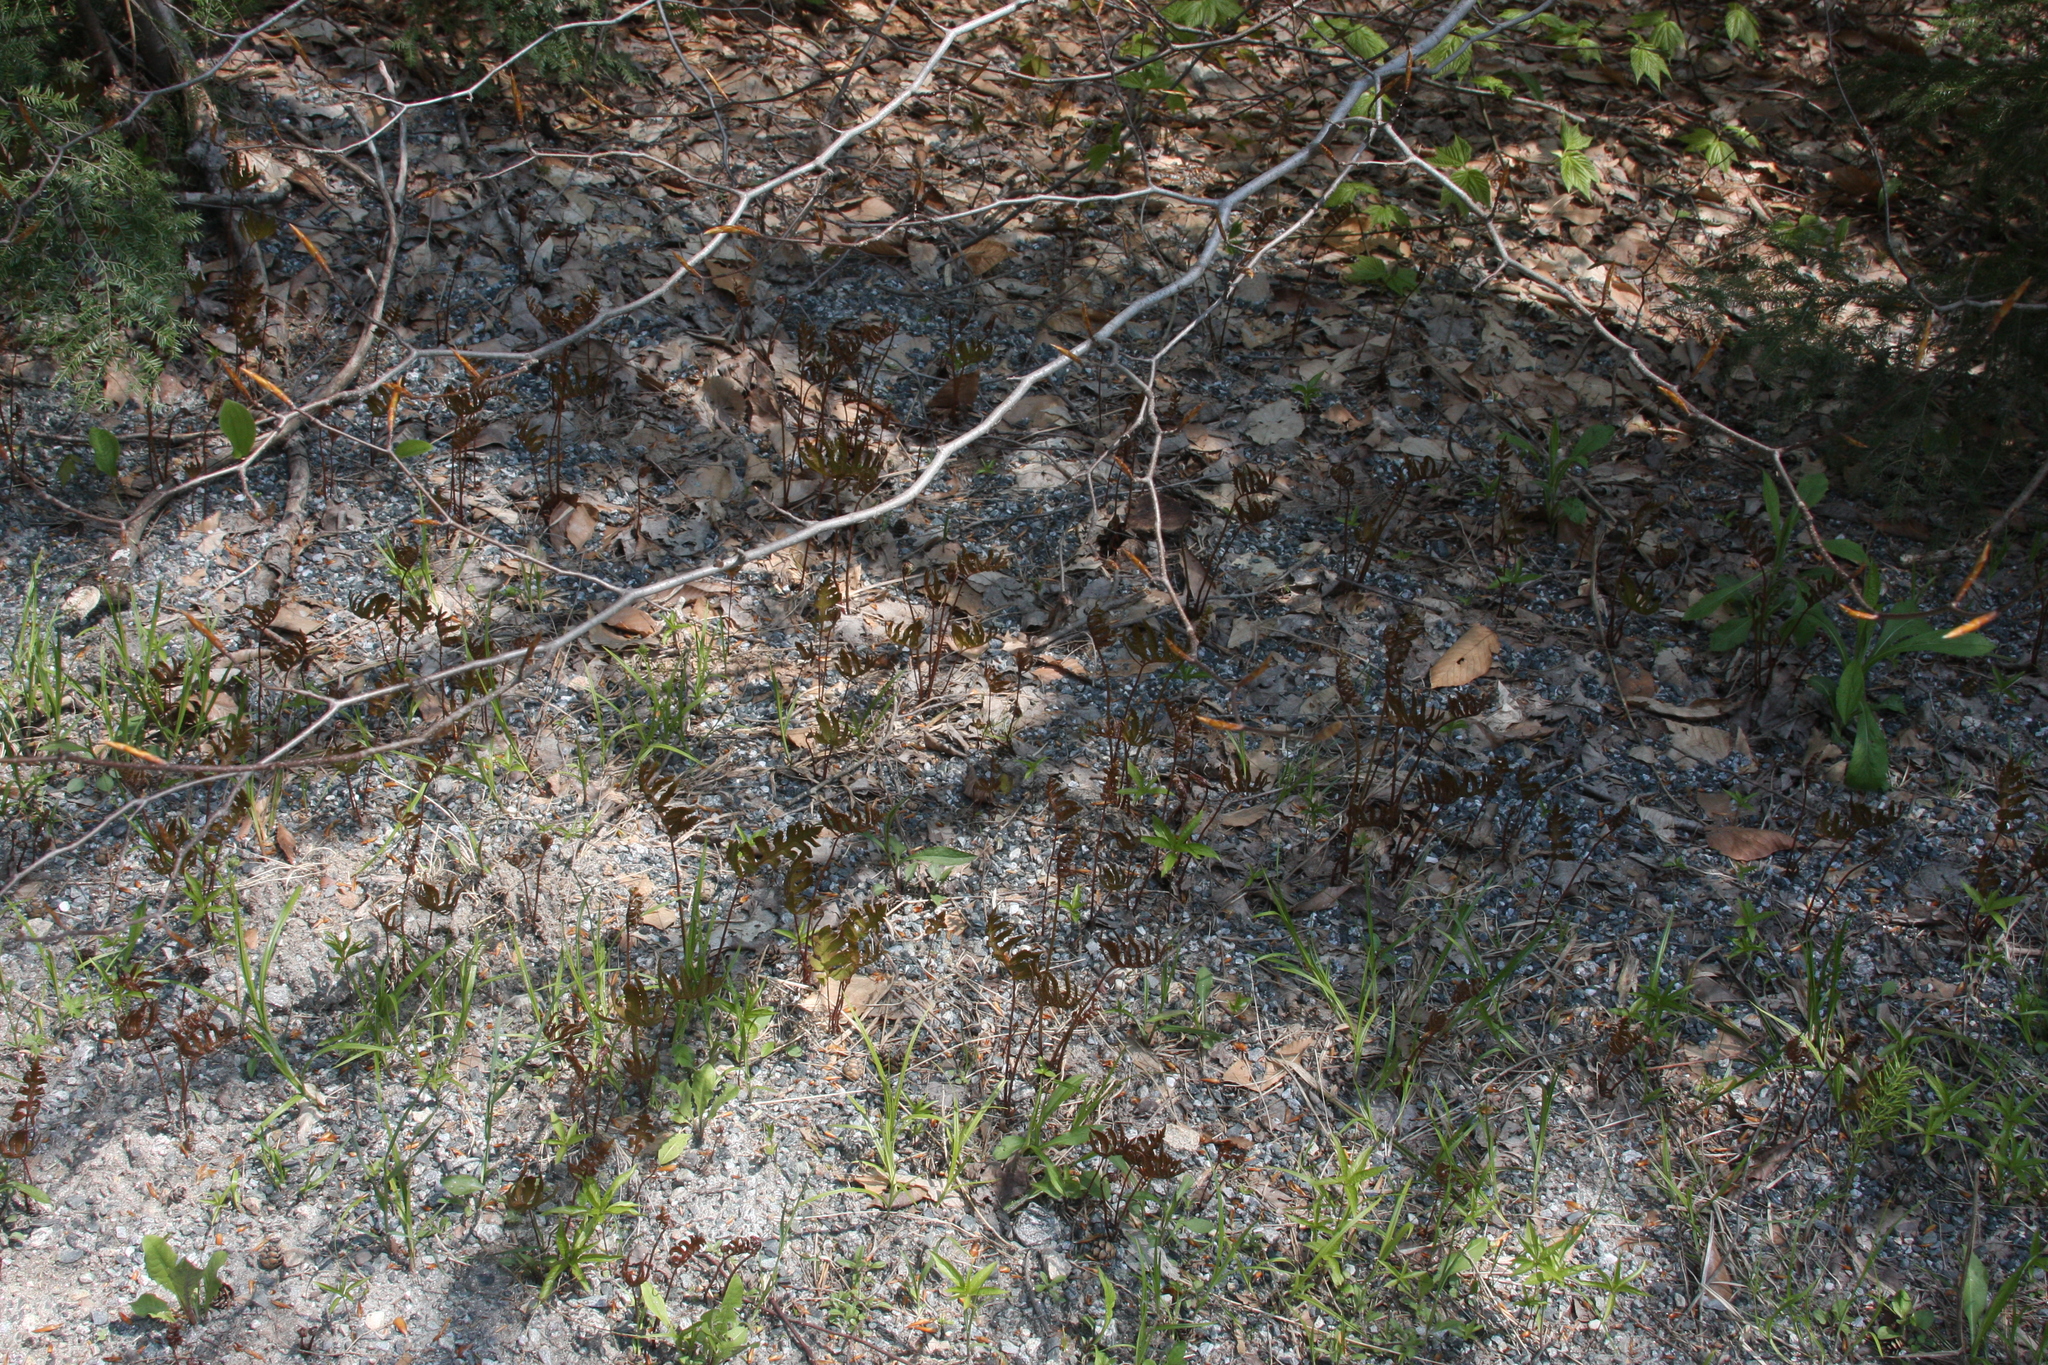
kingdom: Plantae
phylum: Tracheophyta
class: Polypodiopsida
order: Polypodiales
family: Onocleaceae
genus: Onoclea
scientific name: Onoclea sensibilis
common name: Sensitive fern
